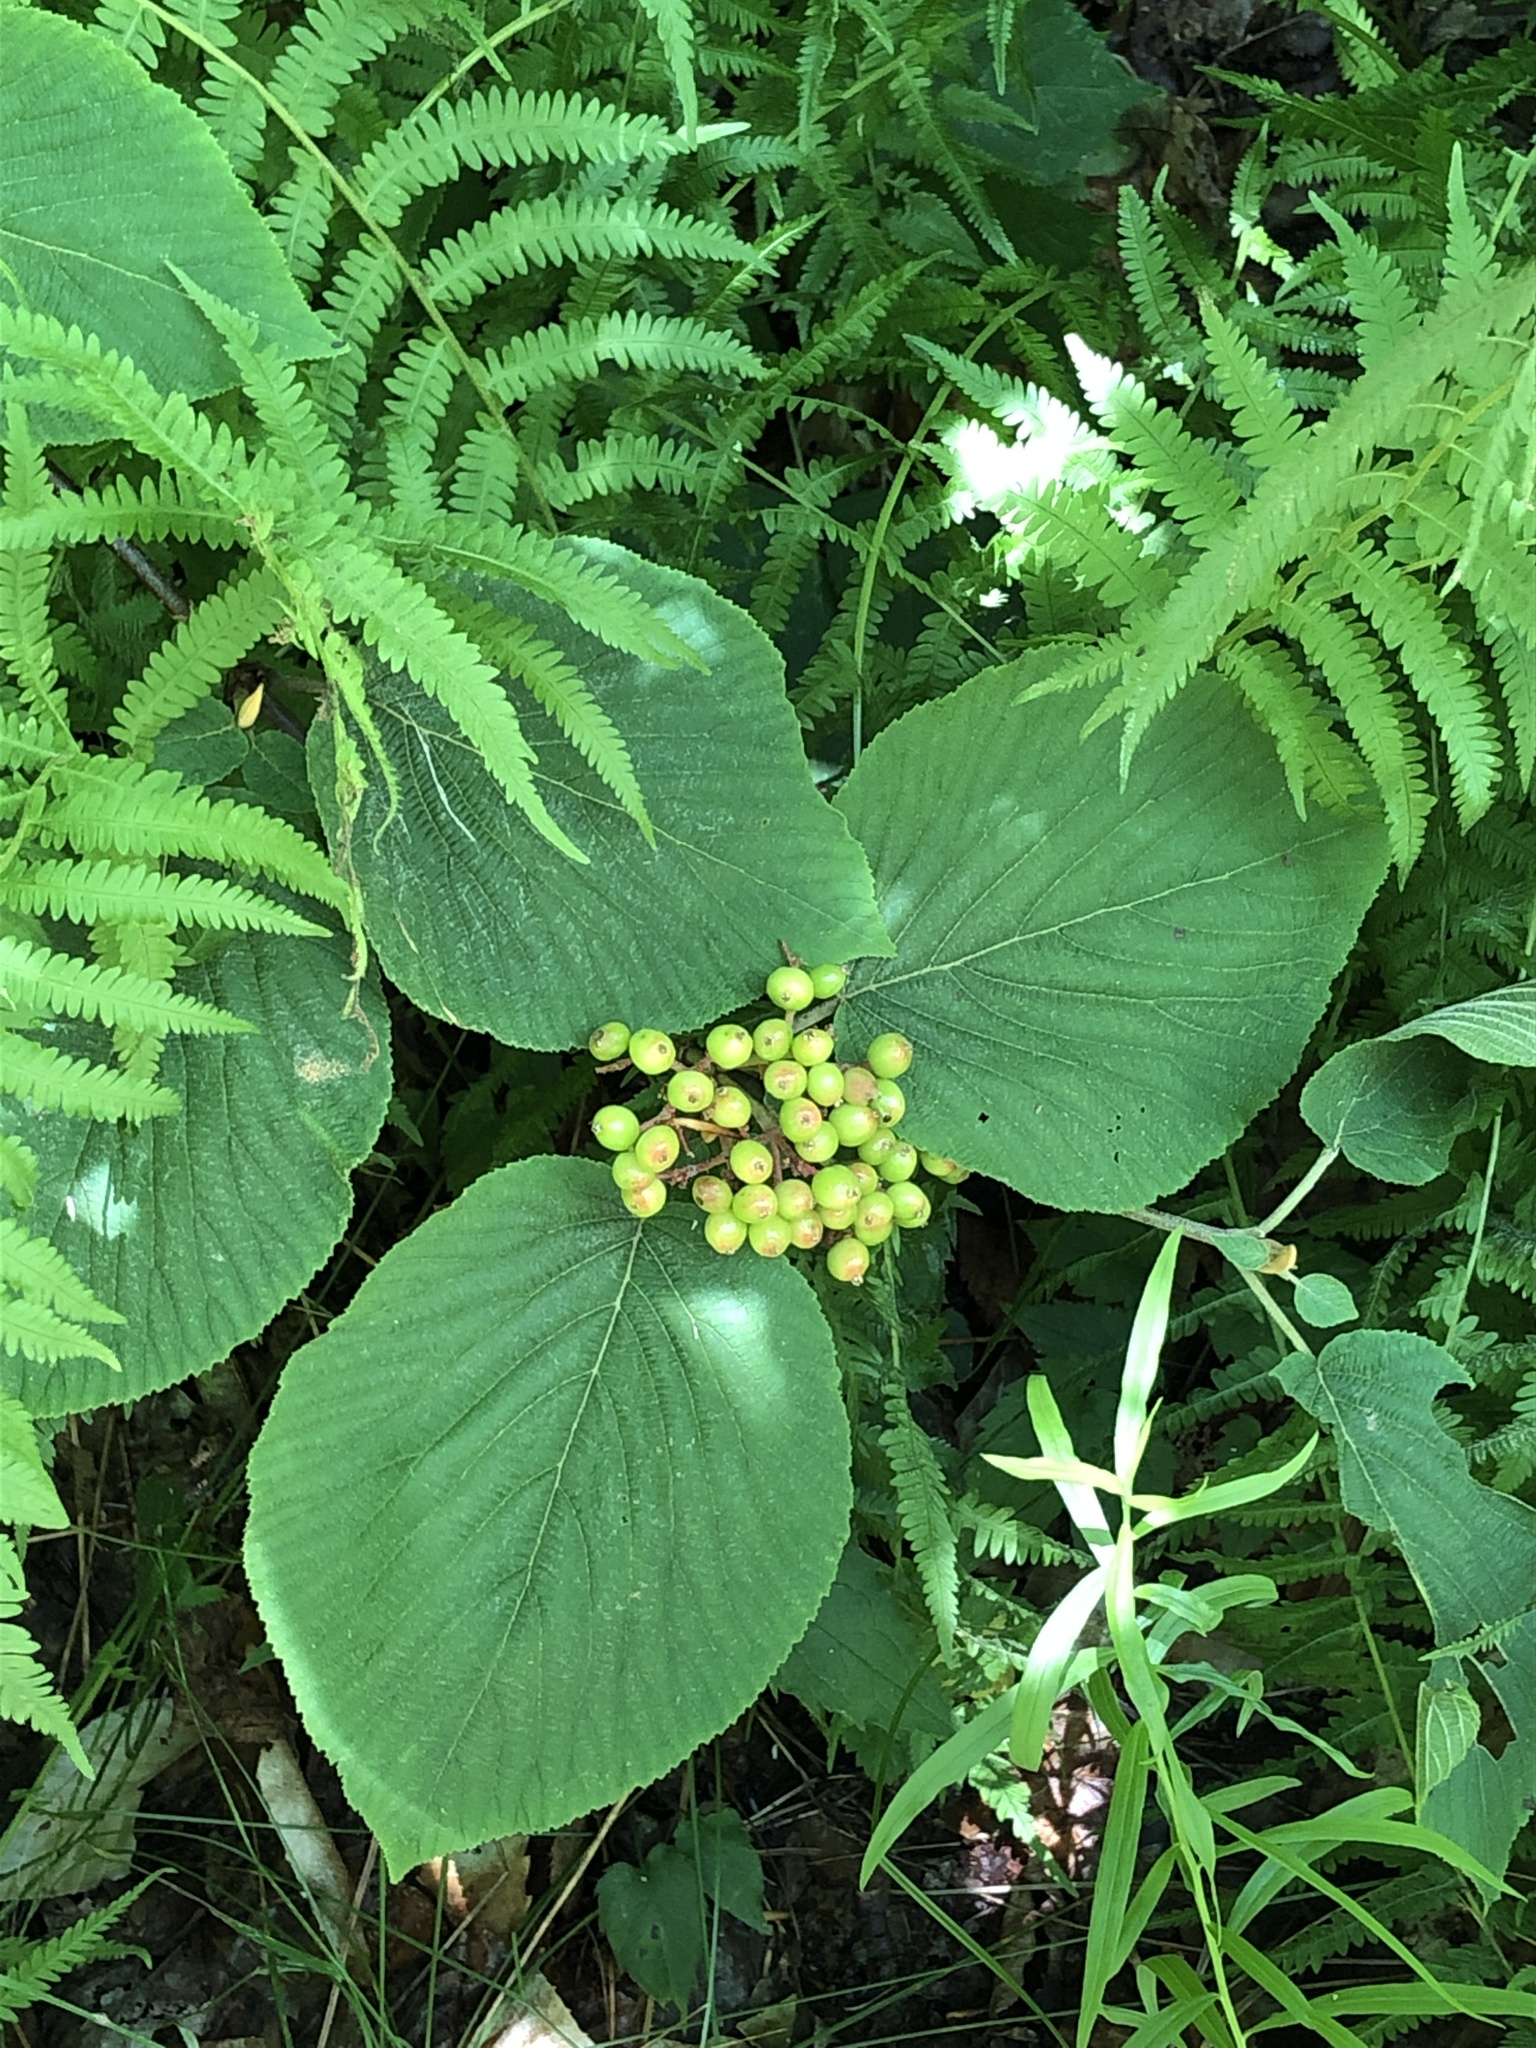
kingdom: Plantae
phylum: Tracheophyta
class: Magnoliopsida
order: Dipsacales
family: Viburnaceae
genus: Viburnum
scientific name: Viburnum lantanoides
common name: Hobblebush
